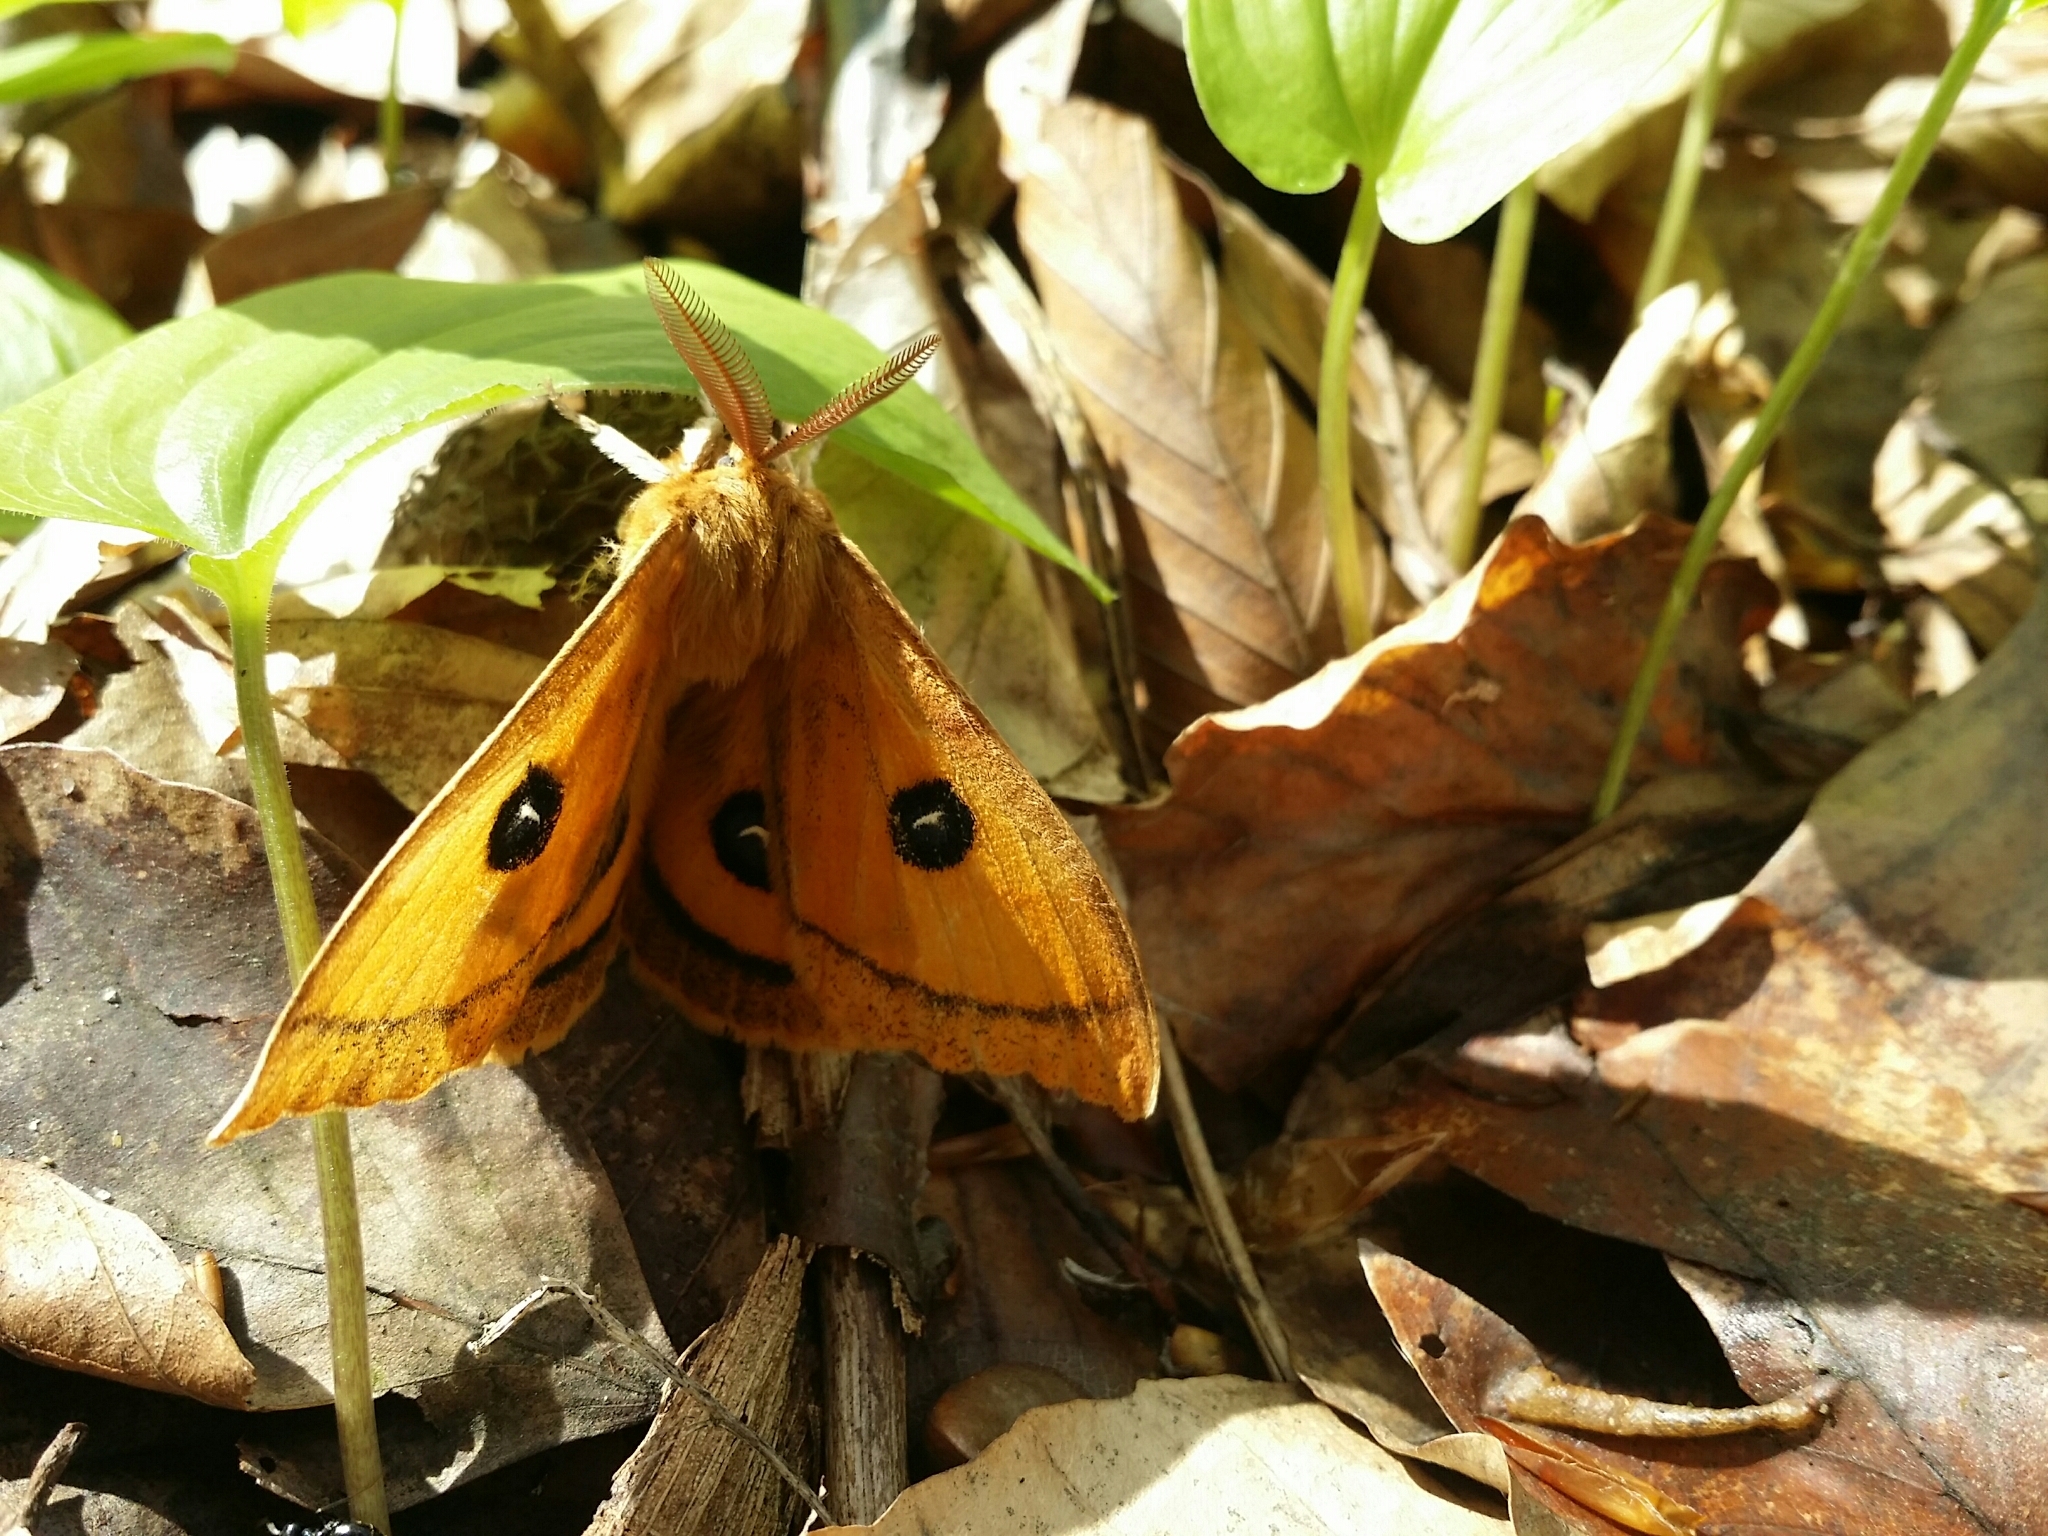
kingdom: Animalia
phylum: Arthropoda
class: Insecta
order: Lepidoptera
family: Saturniidae
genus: Aglia
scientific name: Aglia tau
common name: Tau emperor
